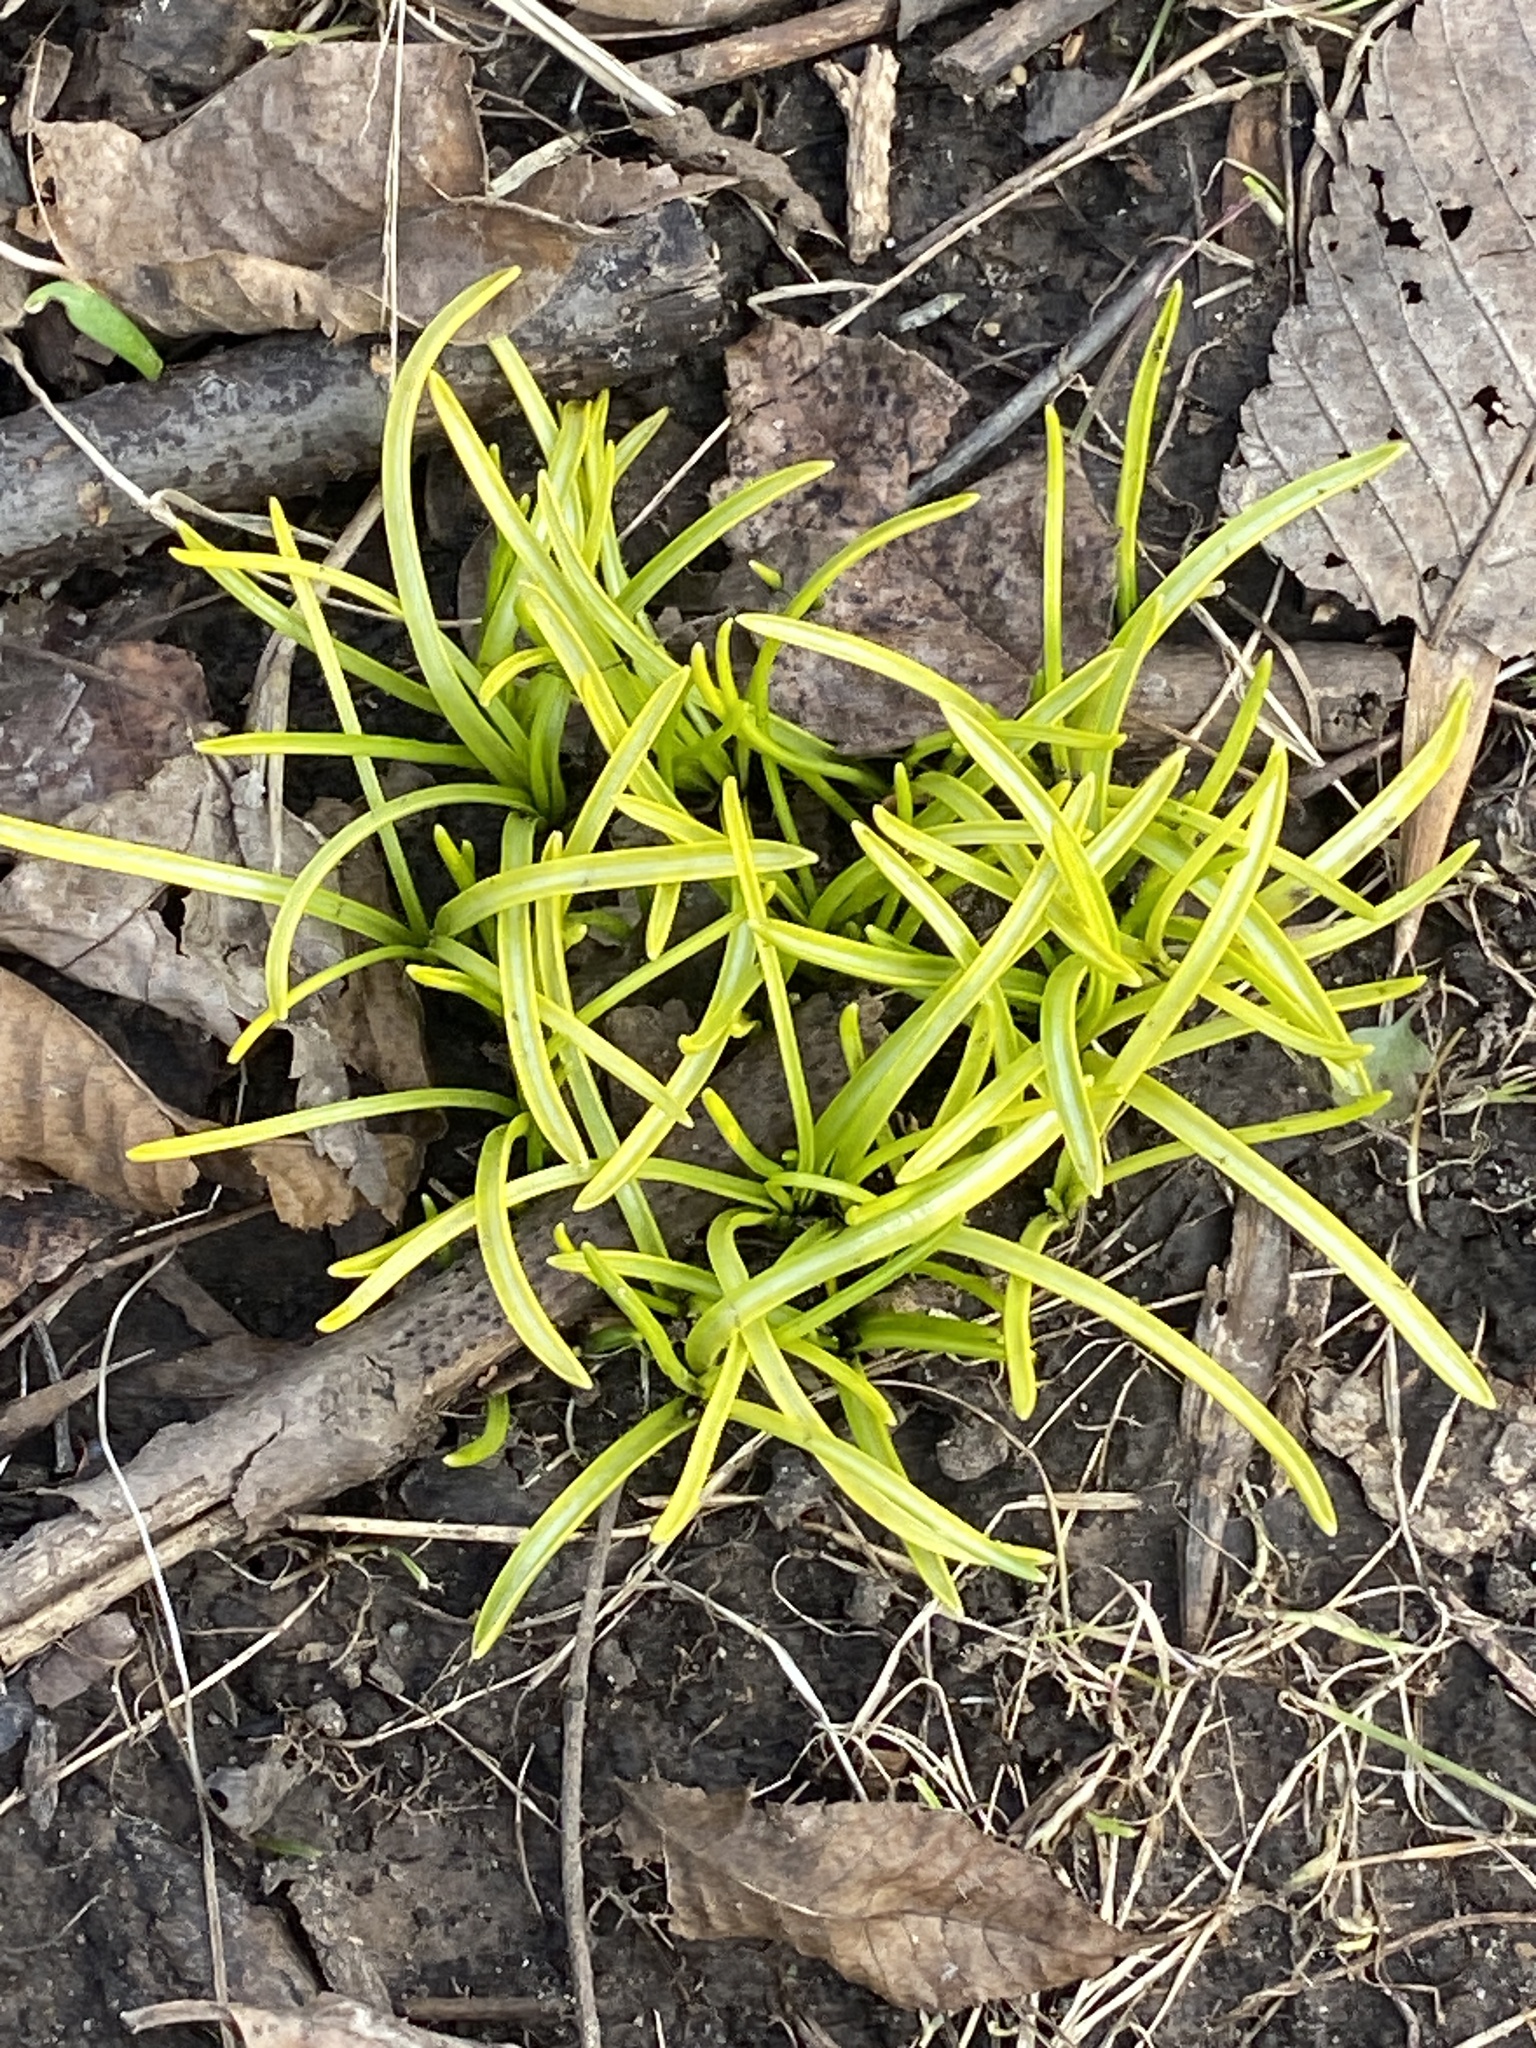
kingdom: Plantae
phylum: Tracheophyta
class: Liliopsida
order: Asparagales
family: Iridaceae
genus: Crocus
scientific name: Crocus
